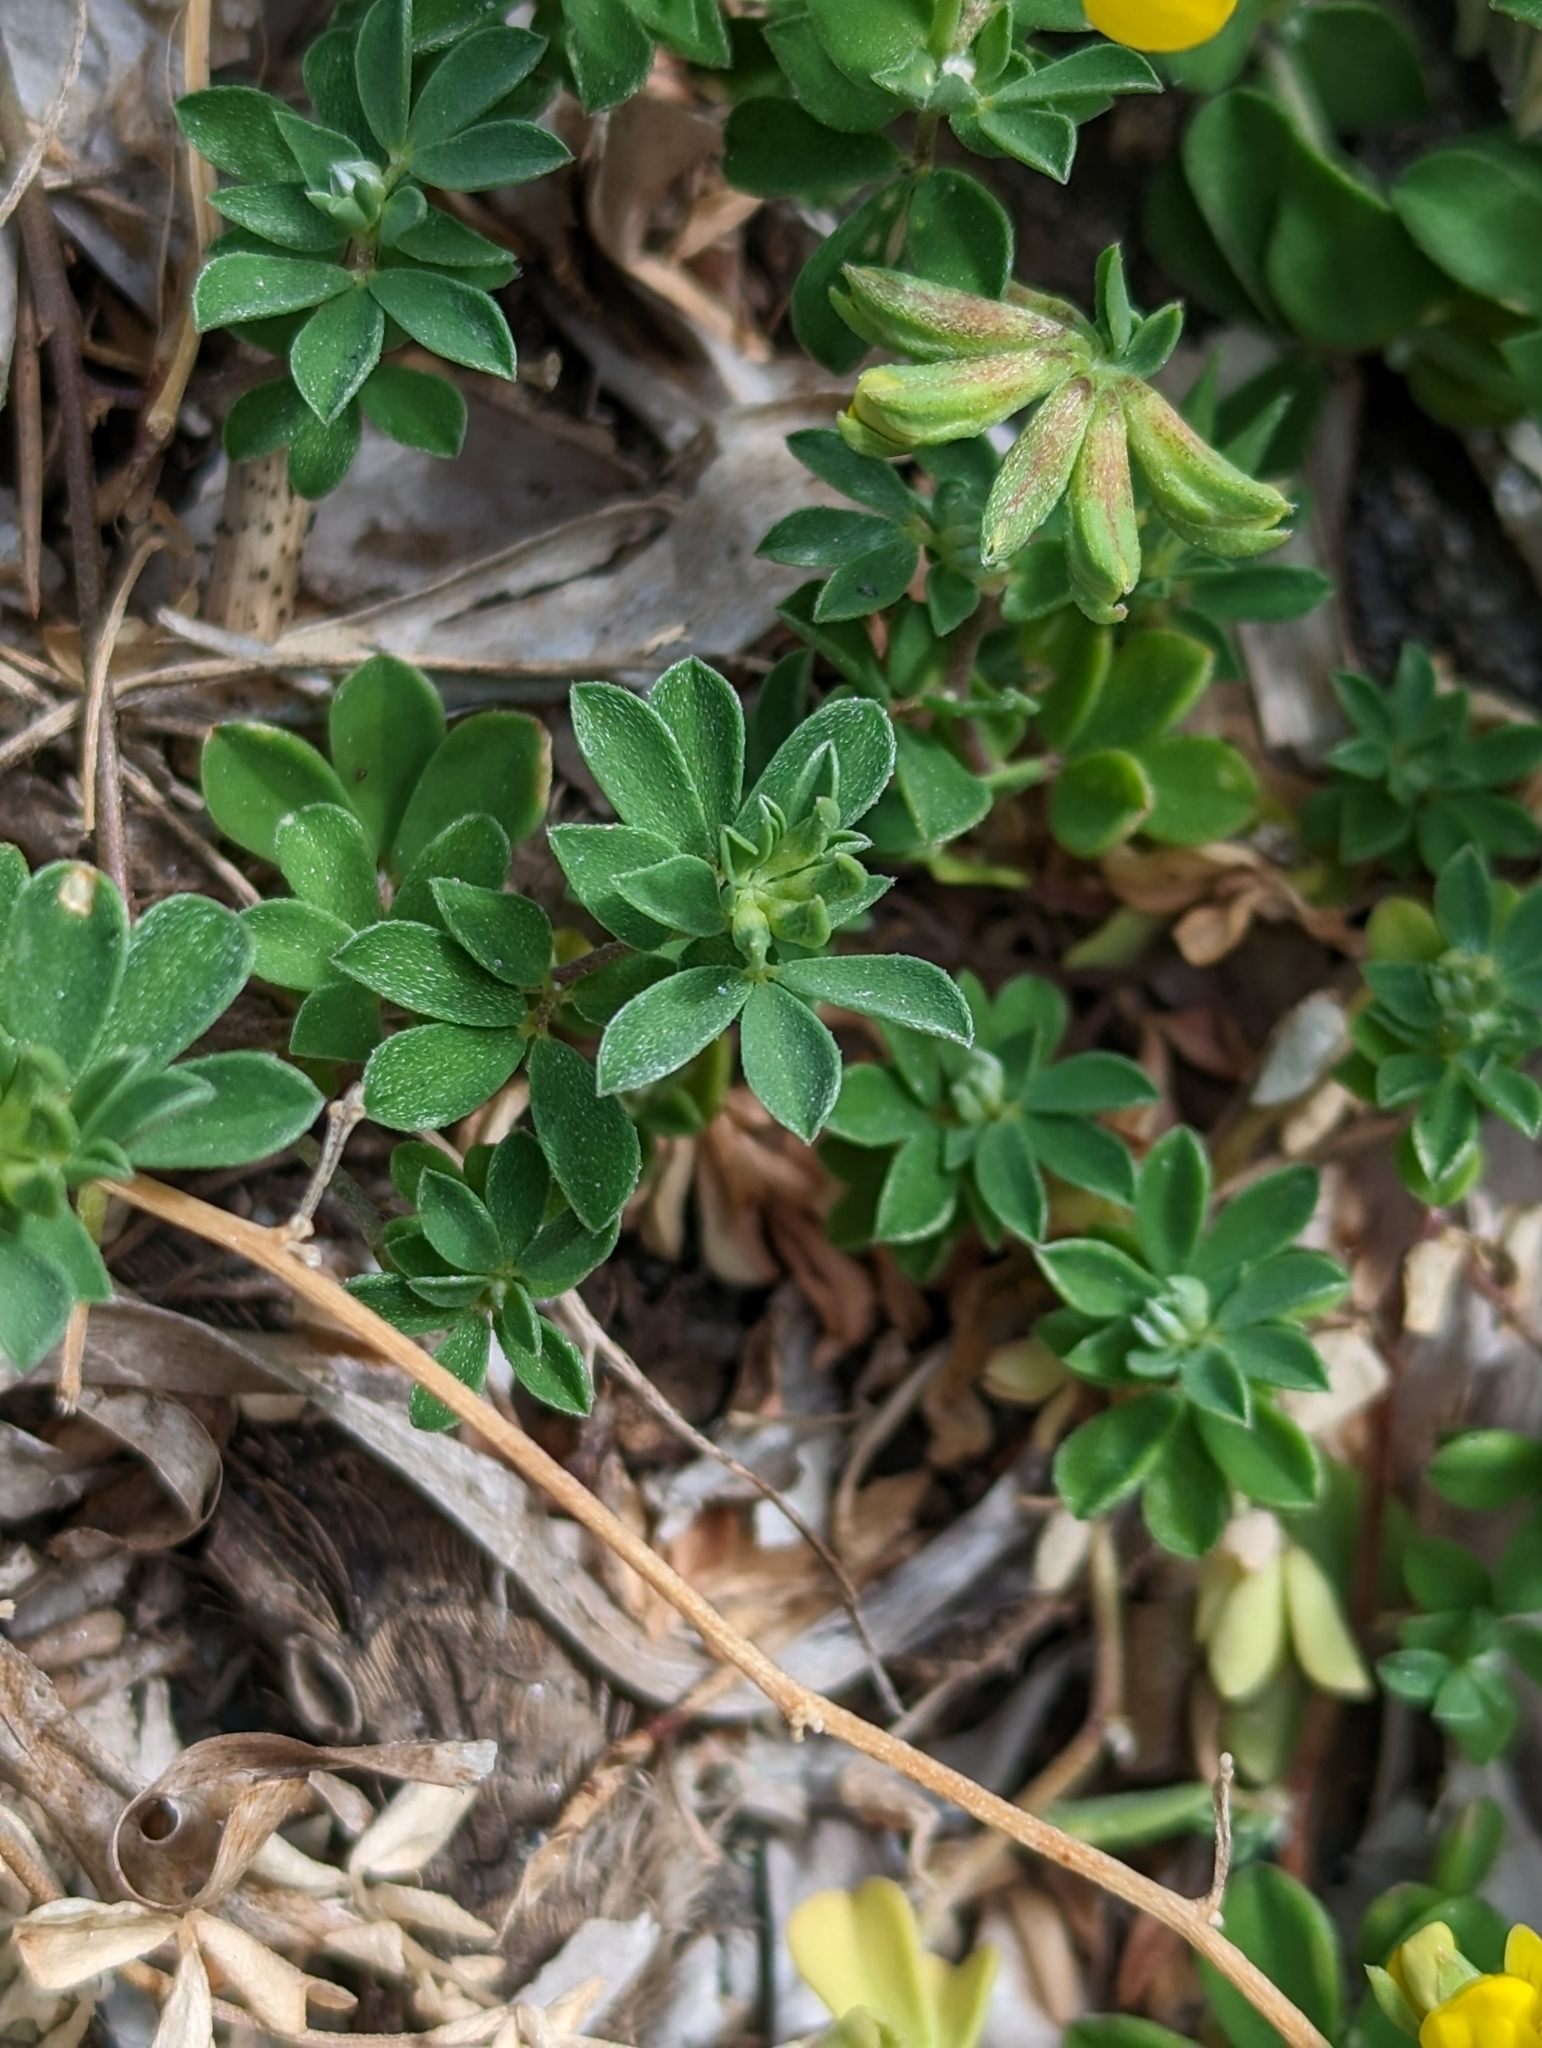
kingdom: Plantae
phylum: Tracheophyta
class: Magnoliopsida
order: Fabales
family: Fabaceae
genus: Lotus
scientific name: Lotus cytisoides
